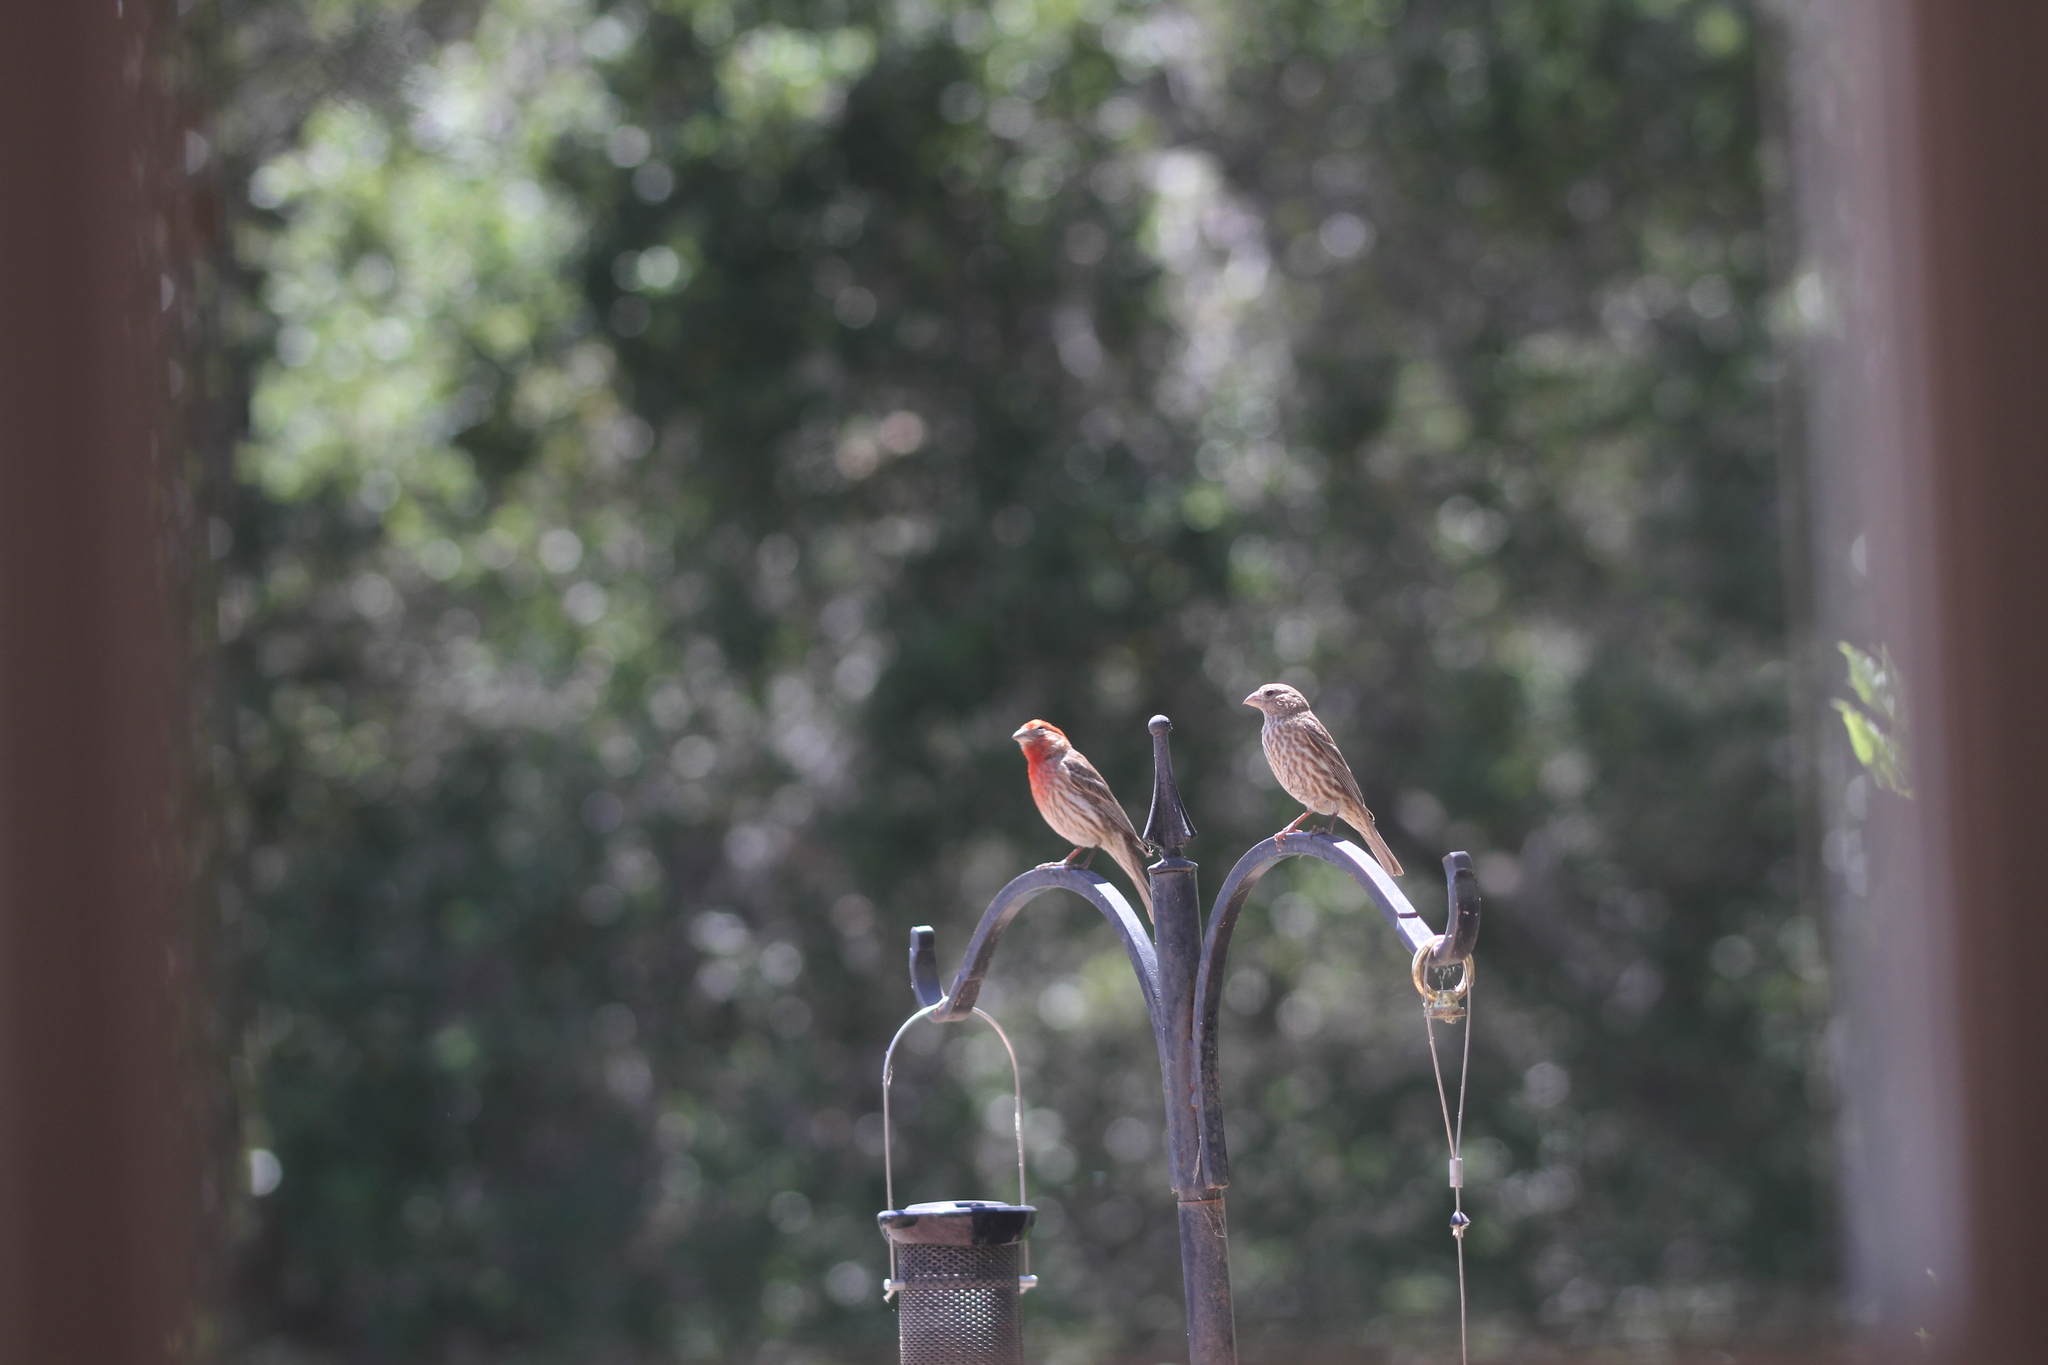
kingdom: Animalia
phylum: Chordata
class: Aves
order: Passeriformes
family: Fringillidae
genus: Haemorhous
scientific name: Haemorhous mexicanus
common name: House finch
